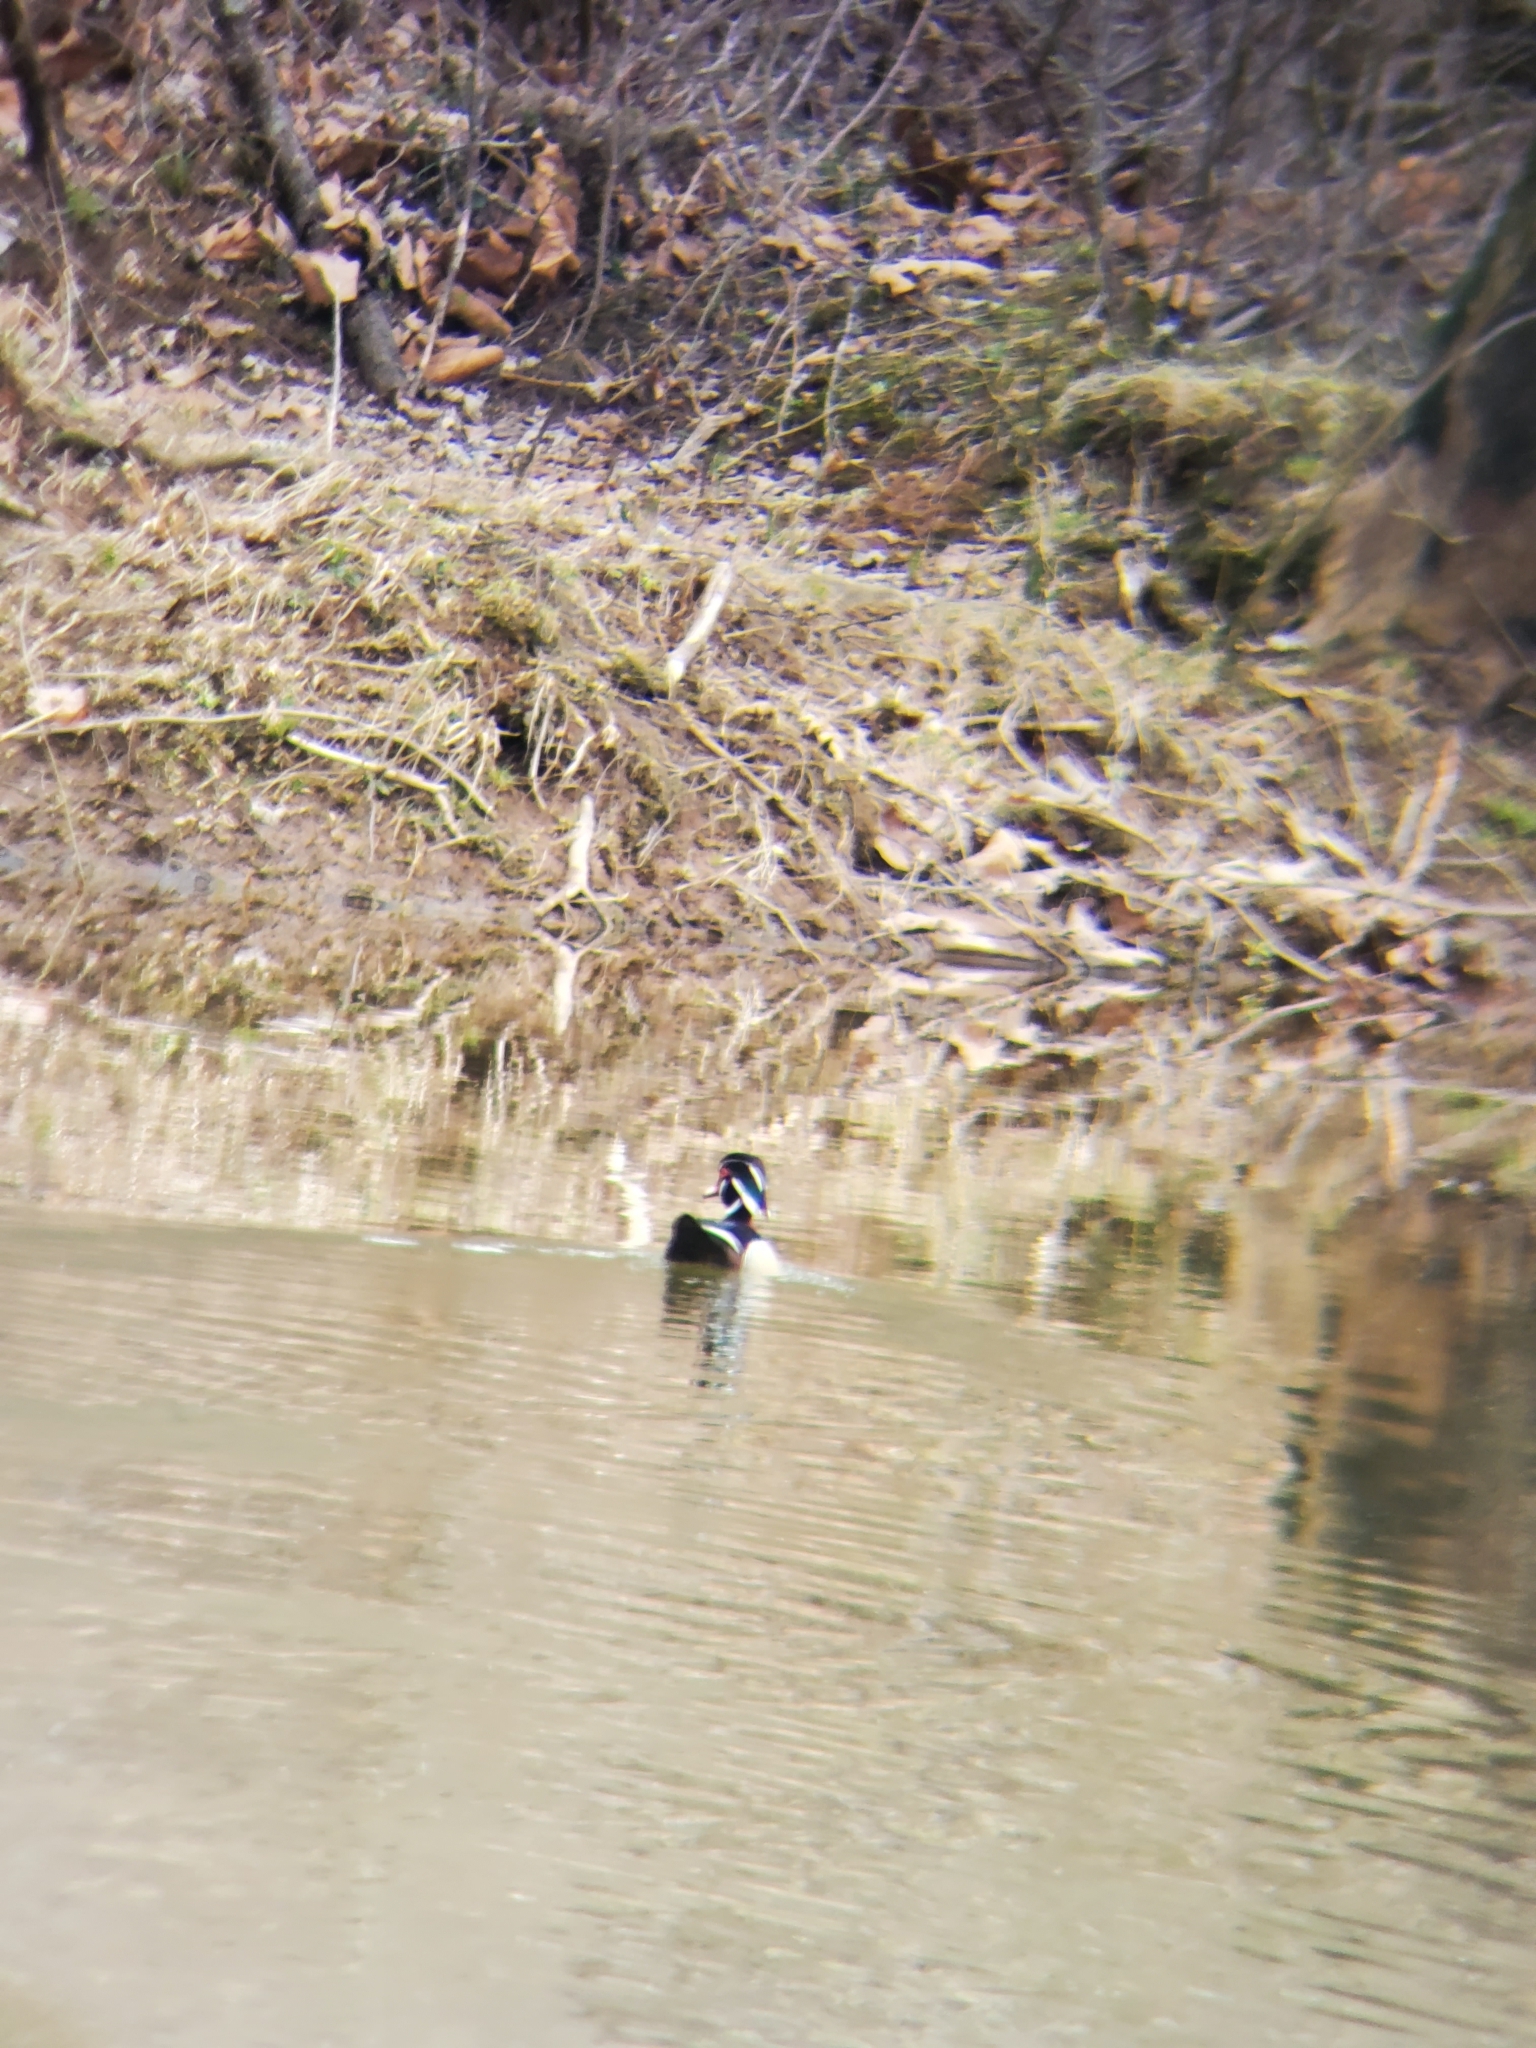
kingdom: Animalia
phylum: Chordata
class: Aves
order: Anseriformes
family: Anatidae
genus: Aix
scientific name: Aix sponsa
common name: Wood duck
